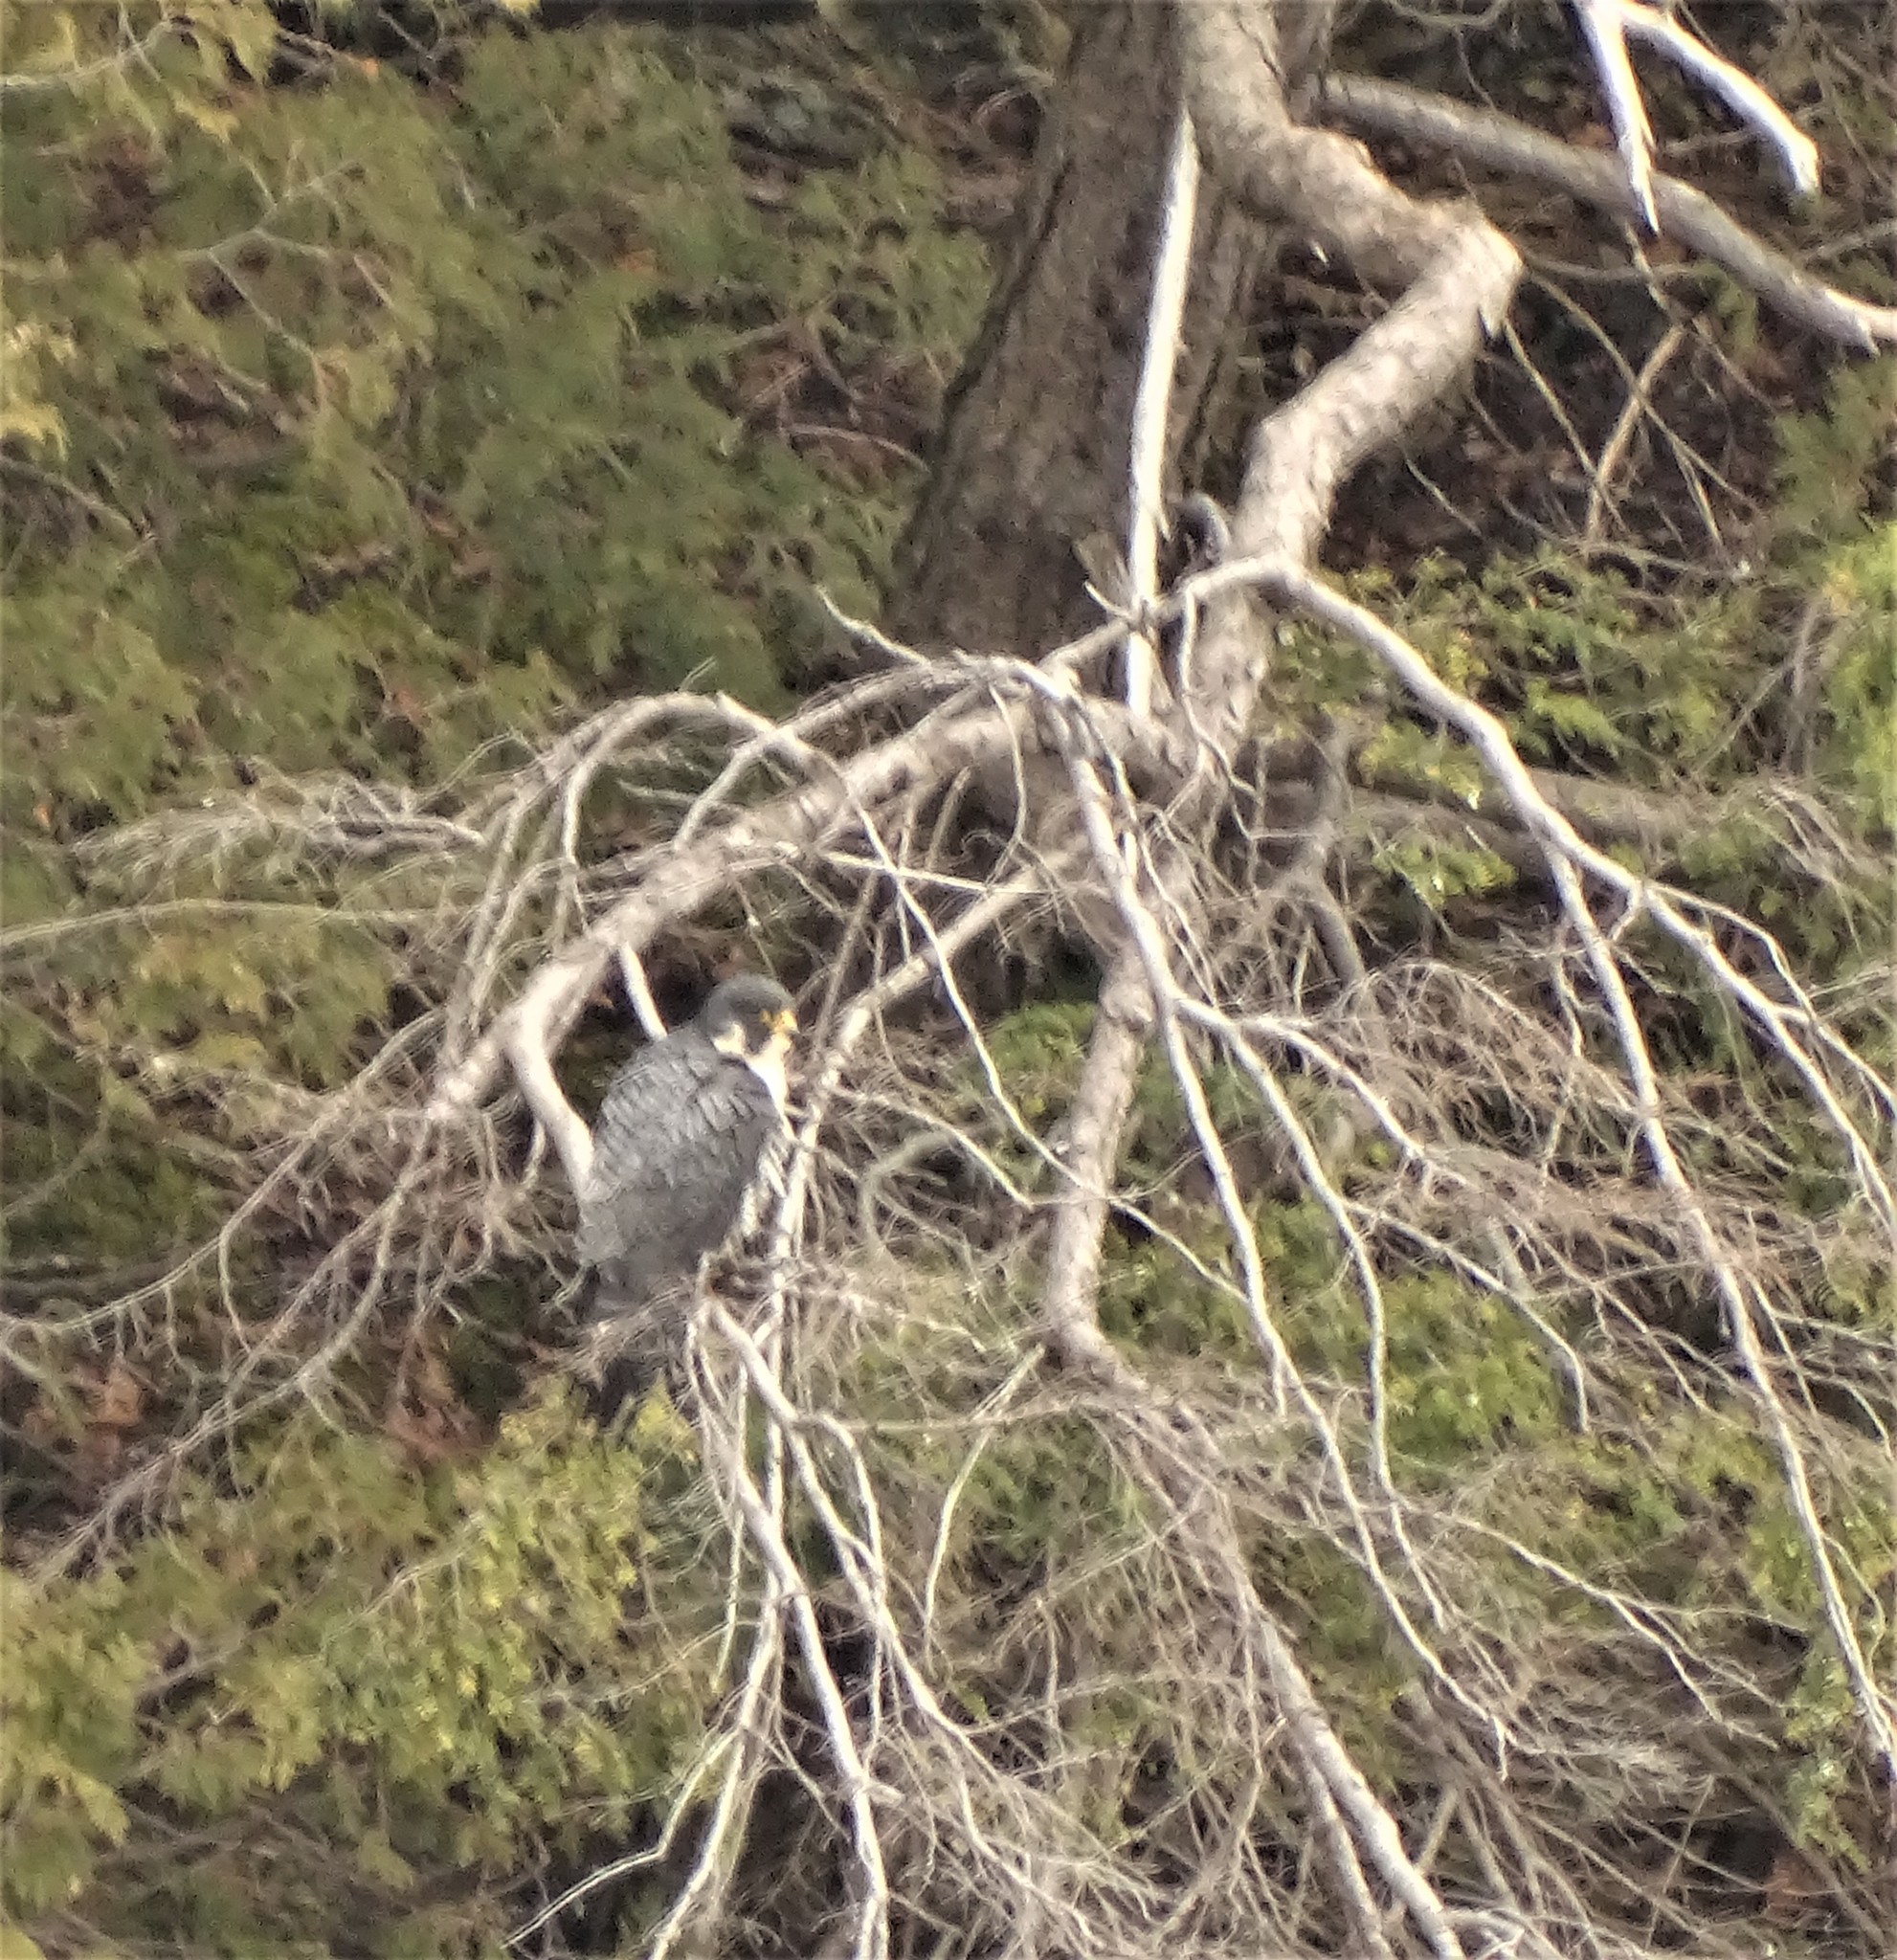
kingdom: Animalia
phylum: Chordata
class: Aves
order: Falconiformes
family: Falconidae
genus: Falco
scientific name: Falco peregrinus
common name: Peregrine falcon
